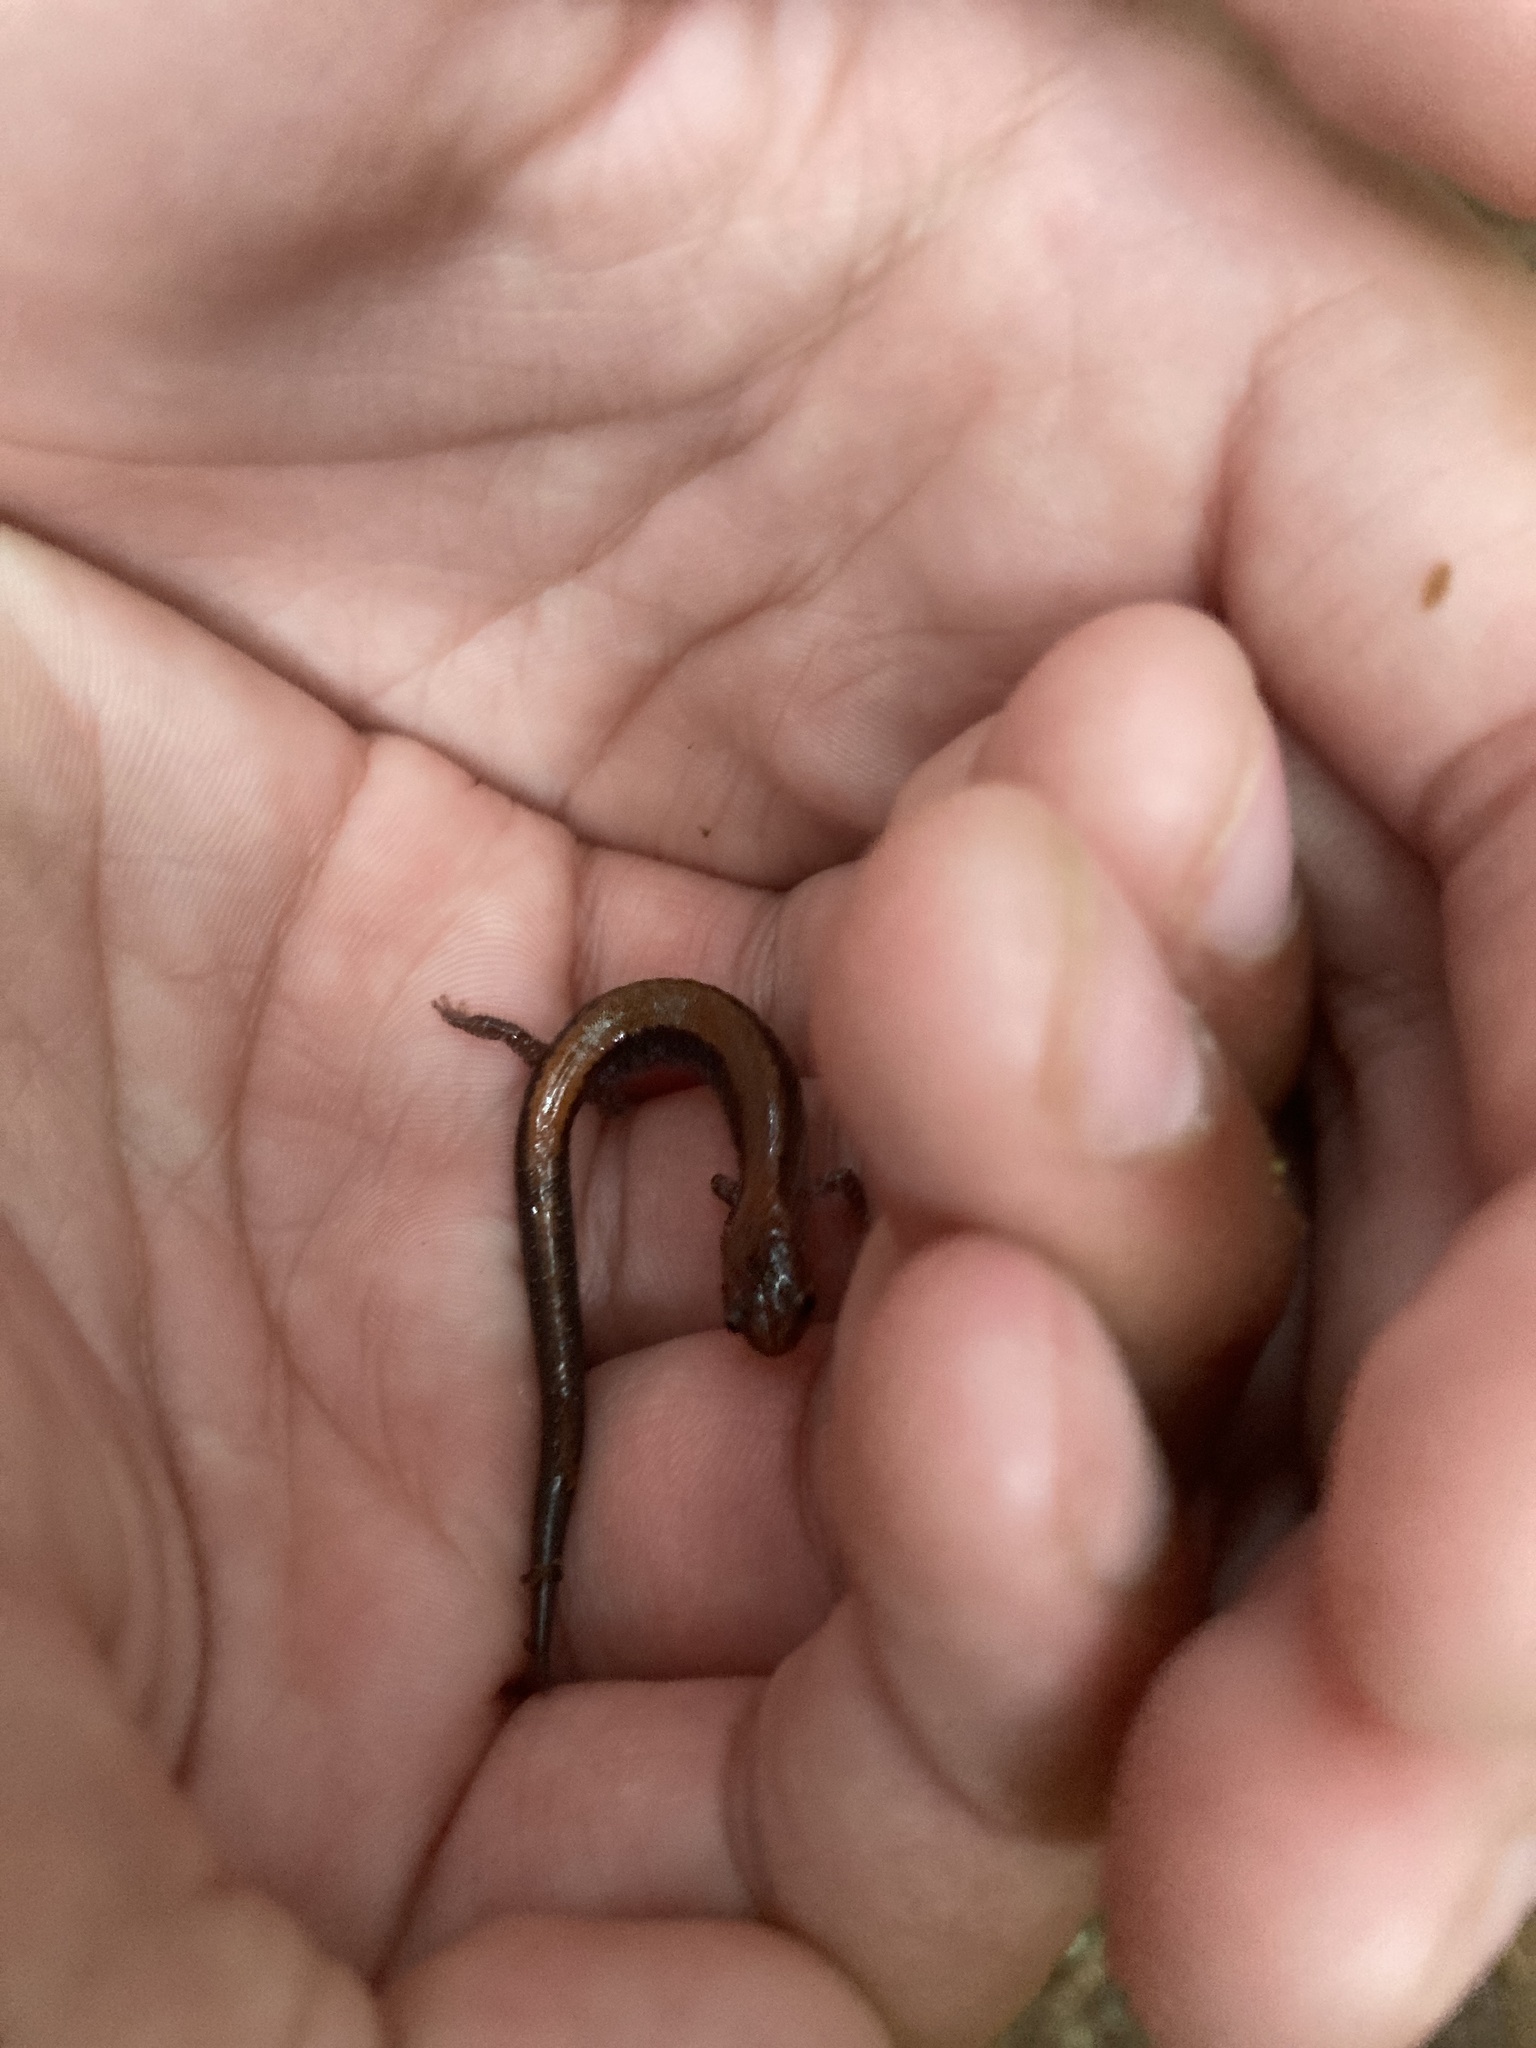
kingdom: Animalia
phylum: Chordata
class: Amphibia
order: Caudata
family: Plethodontidae
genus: Plethodon
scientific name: Plethodon cinereus
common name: Redback salamander
